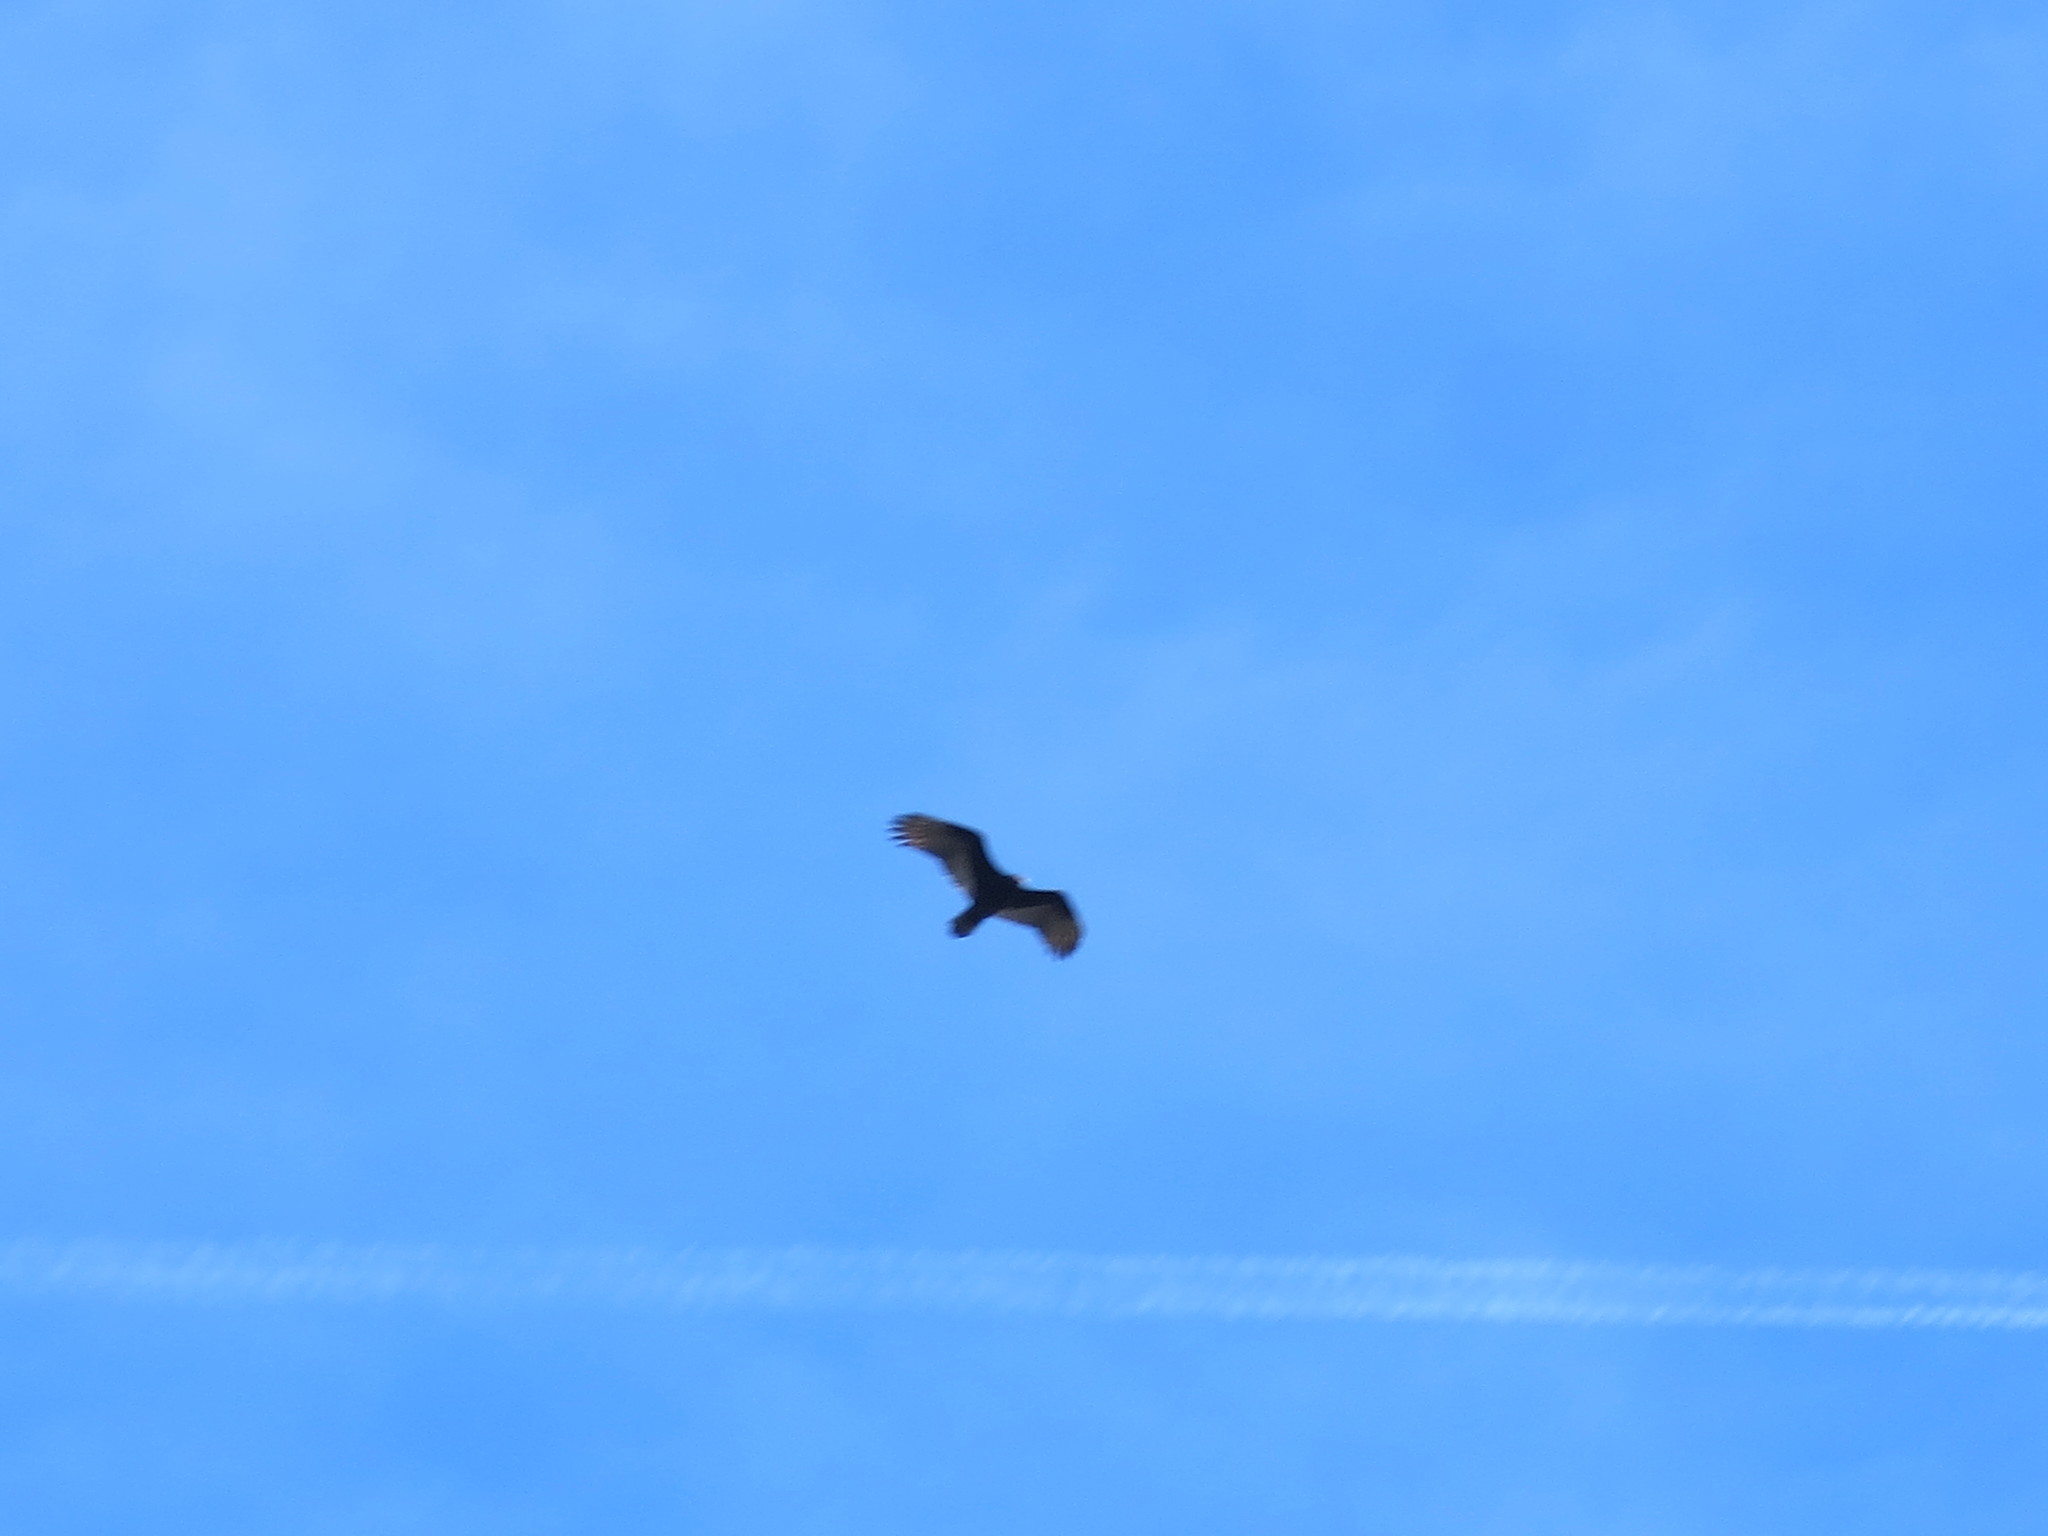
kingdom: Animalia
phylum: Chordata
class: Aves
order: Accipitriformes
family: Cathartidae
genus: Cathartes
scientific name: Cathartes aura
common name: Turkey vulture
